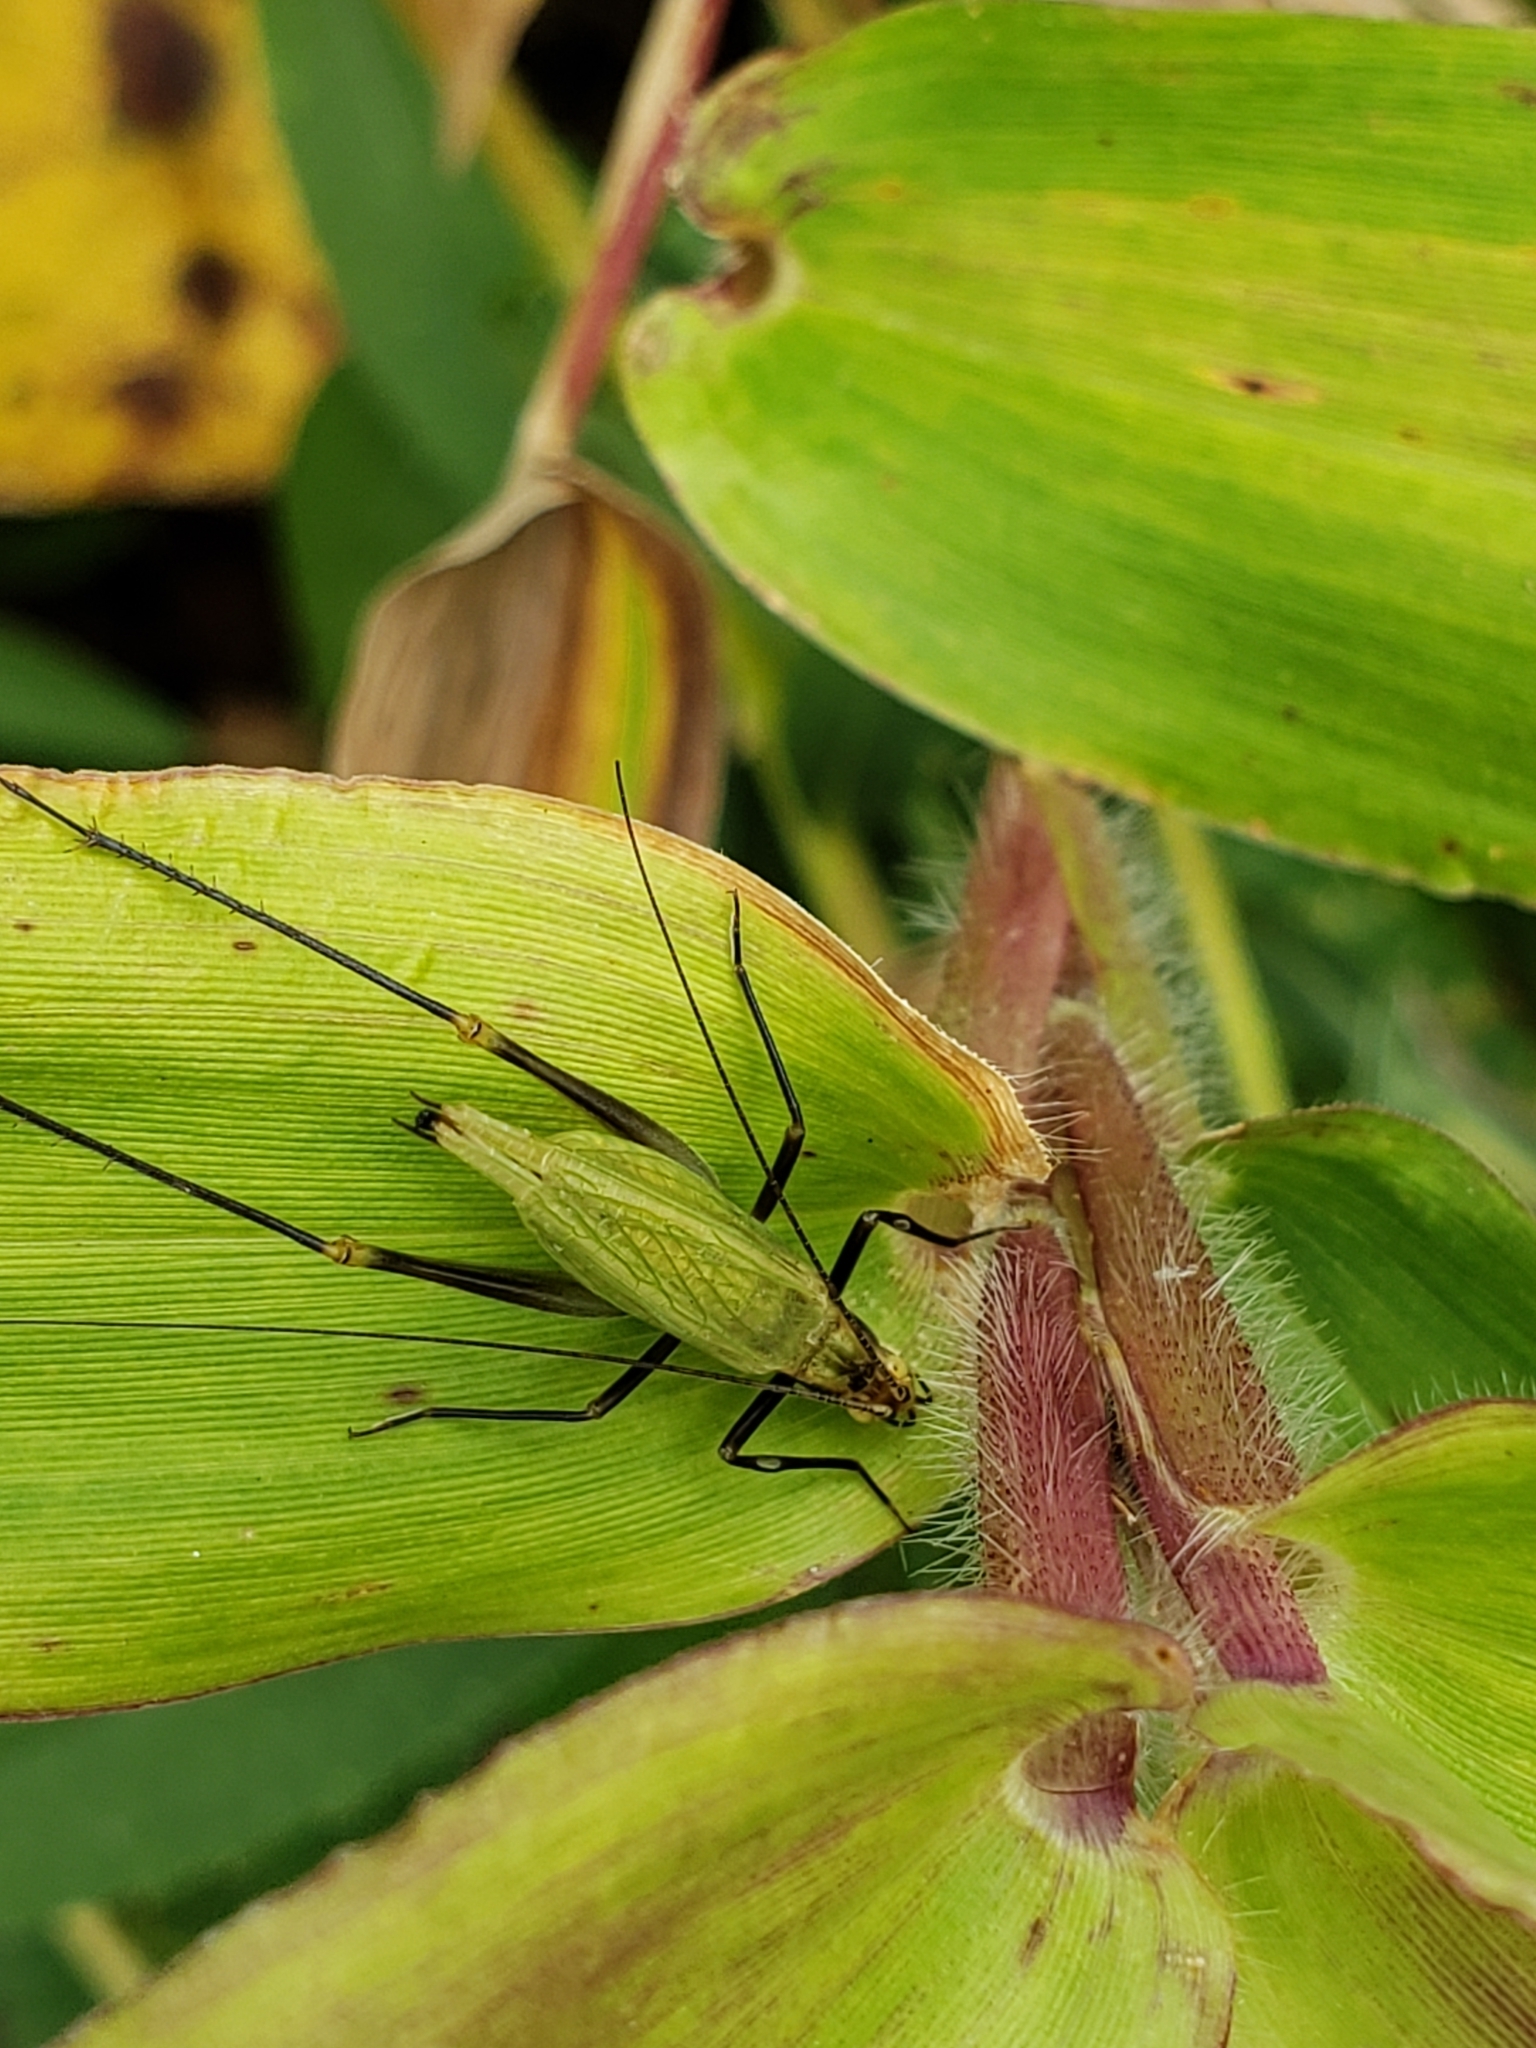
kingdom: Animalia
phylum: Arthropoda
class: Insecta
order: Orthoptera
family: Gryllidae
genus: Oecanthus
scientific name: Oecanthus nigricornis
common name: Black-horned tree cricket
